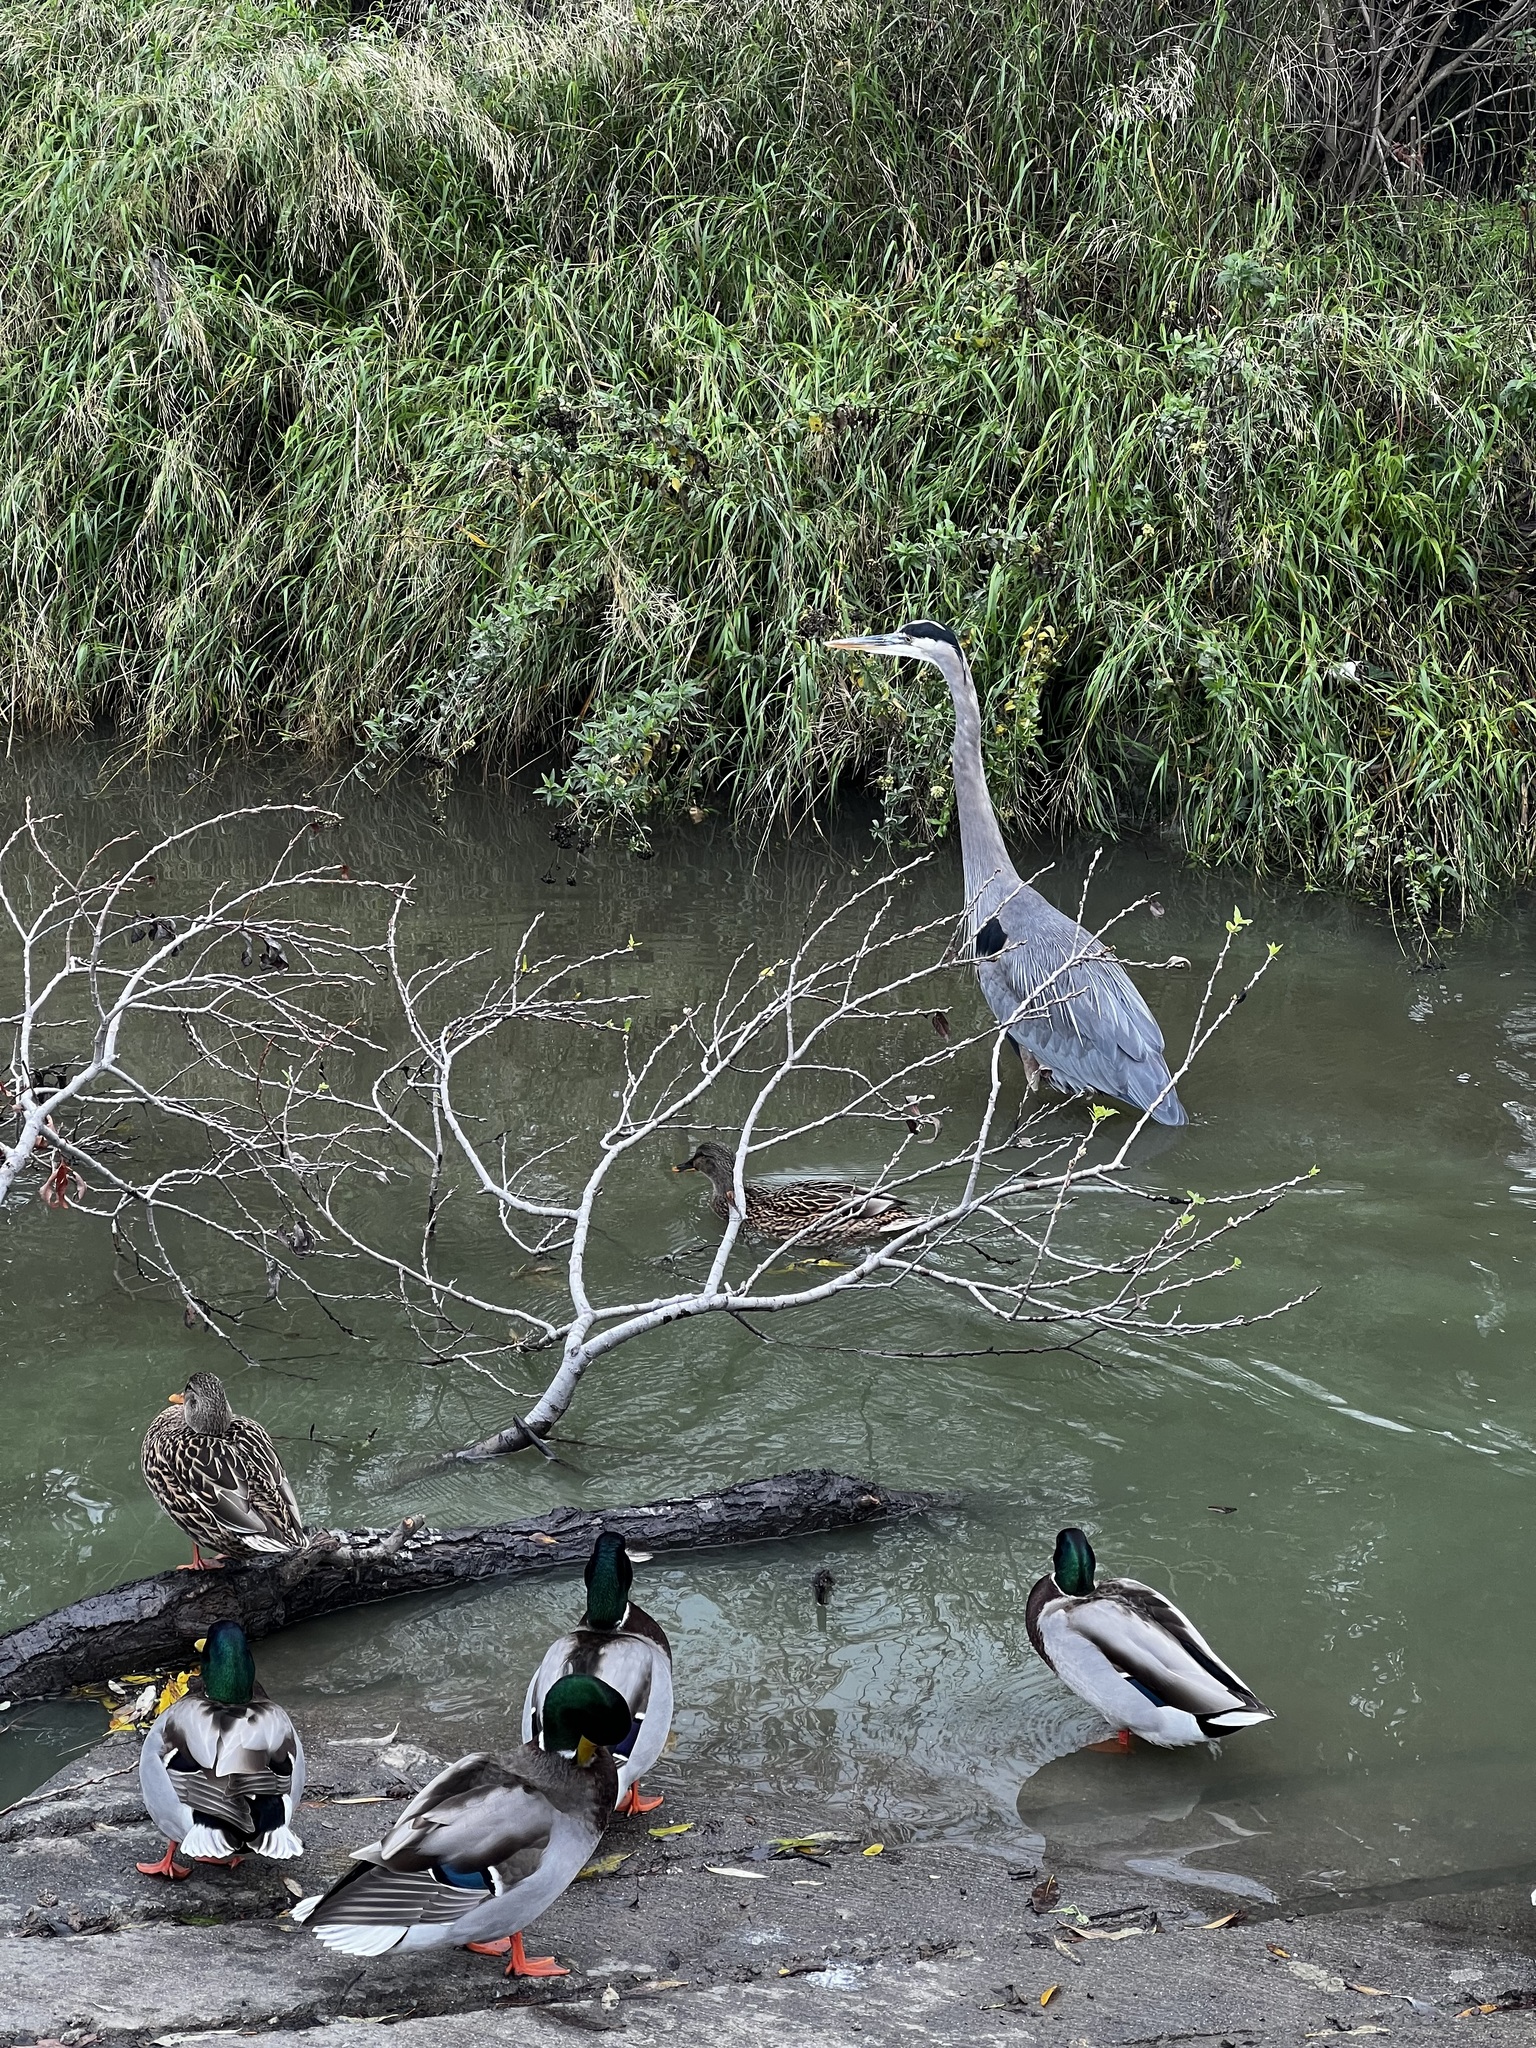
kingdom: Animalia
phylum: Chordata
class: Aves
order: Pelecaniformes
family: Ardeidae
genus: Ardea
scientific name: Ardea herodias
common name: Great blue heron
